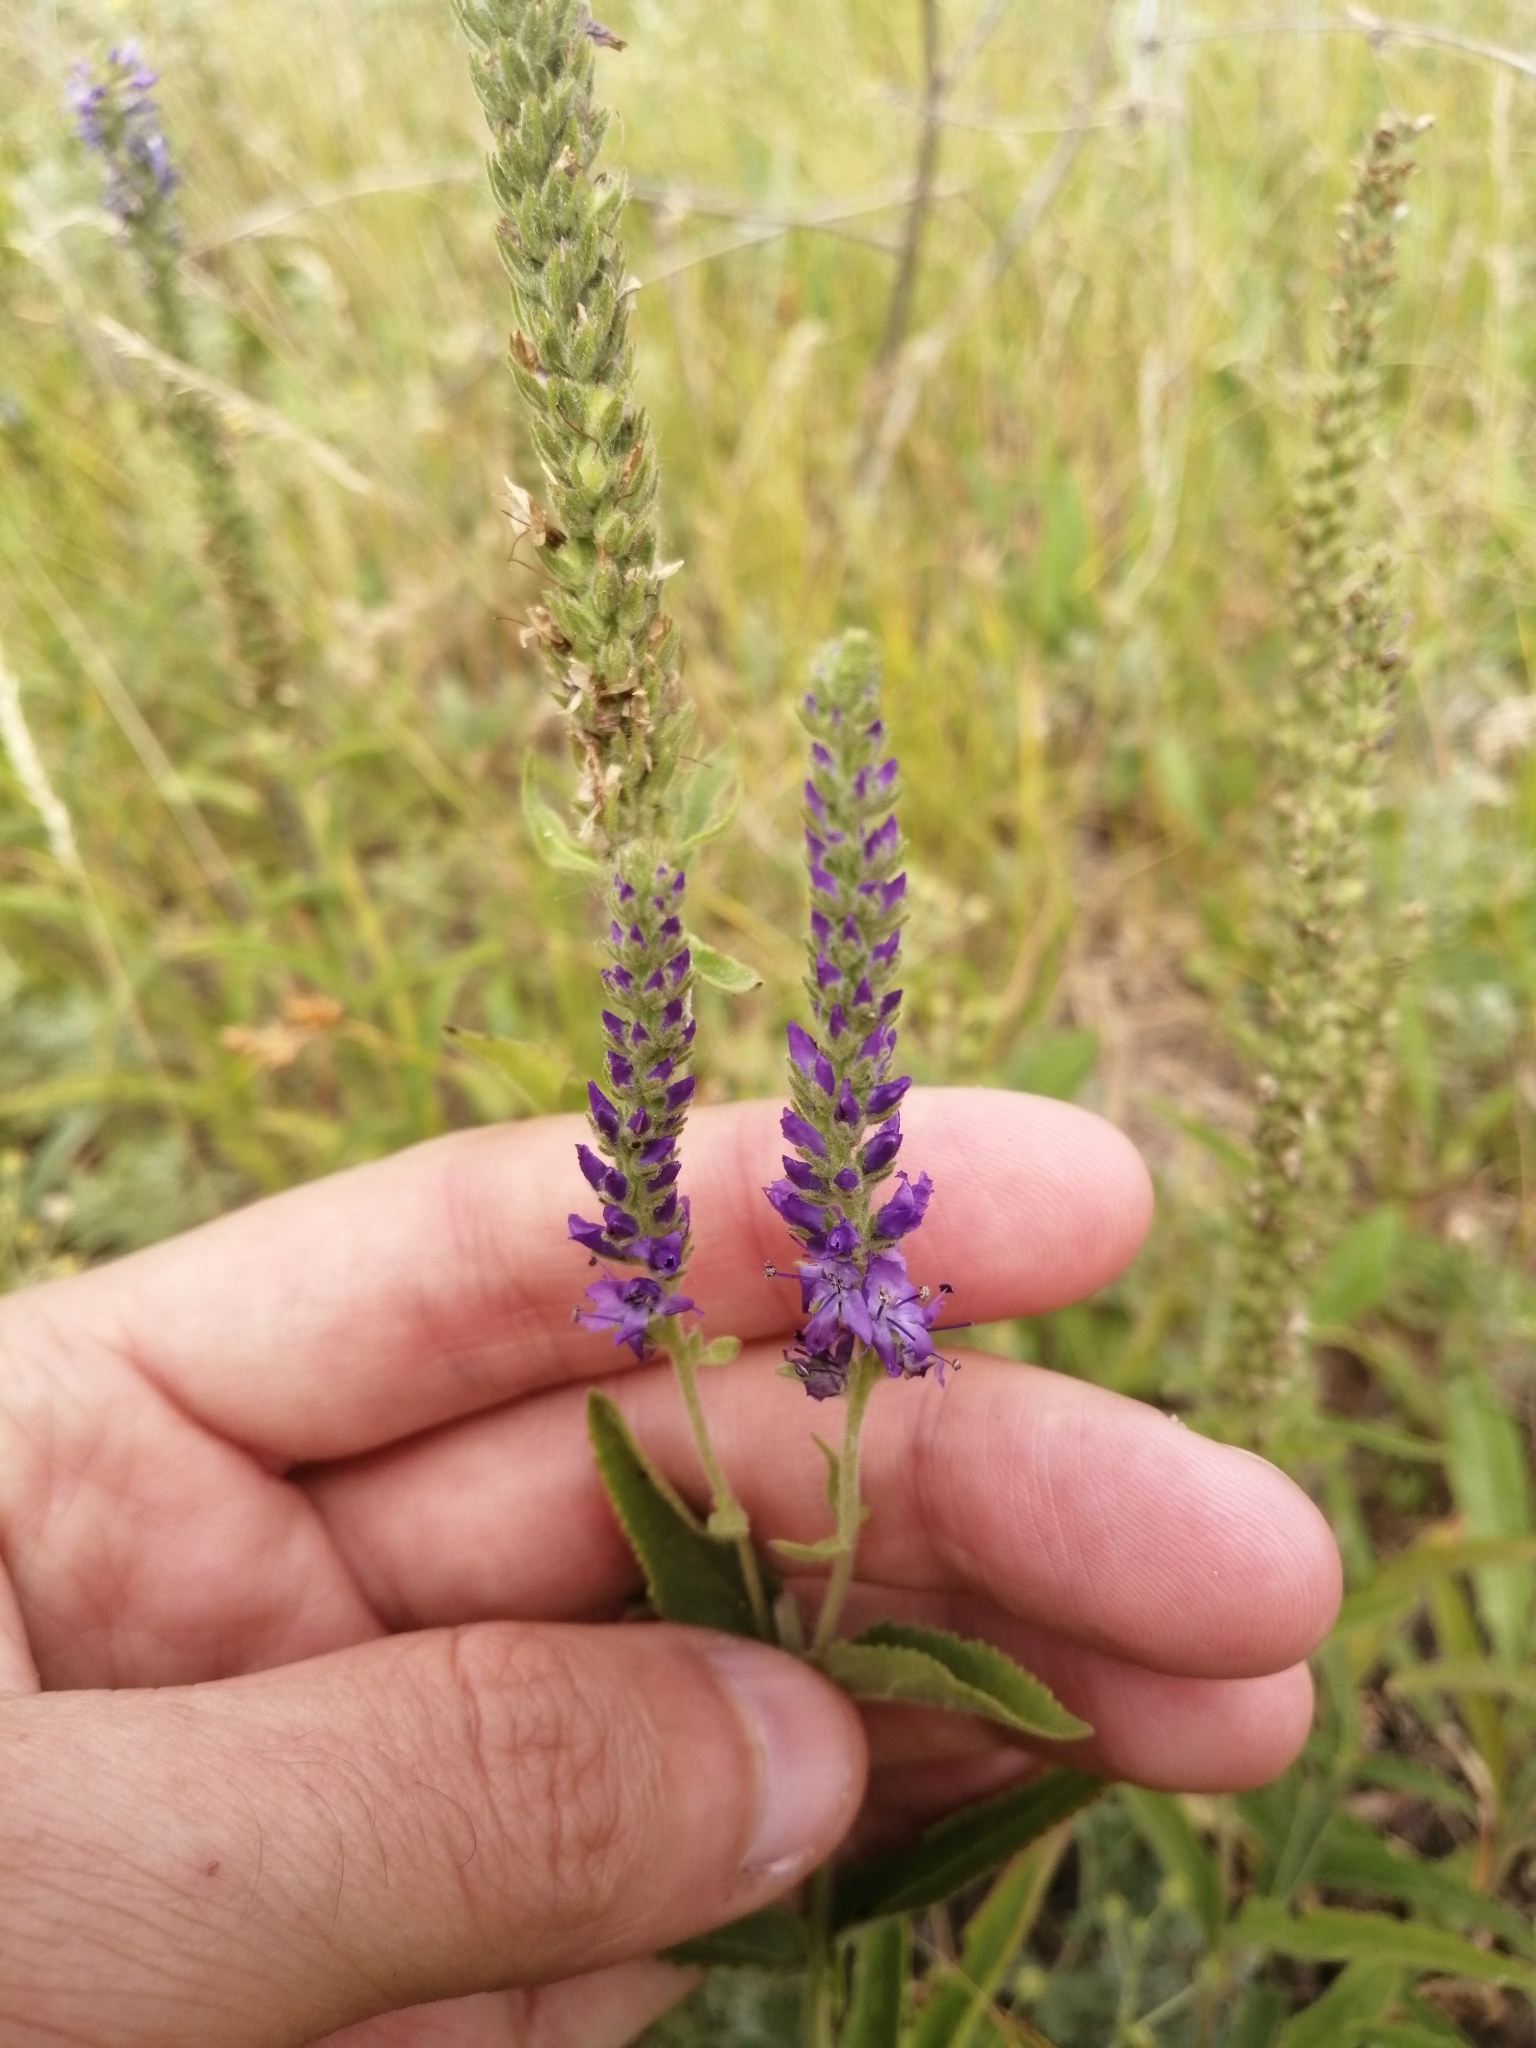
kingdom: Plantae
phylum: Tracheophyta
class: Magnoliopsida
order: Lamiales
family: Plantaginaceae
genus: Veronica
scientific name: Veronica barrelieri
